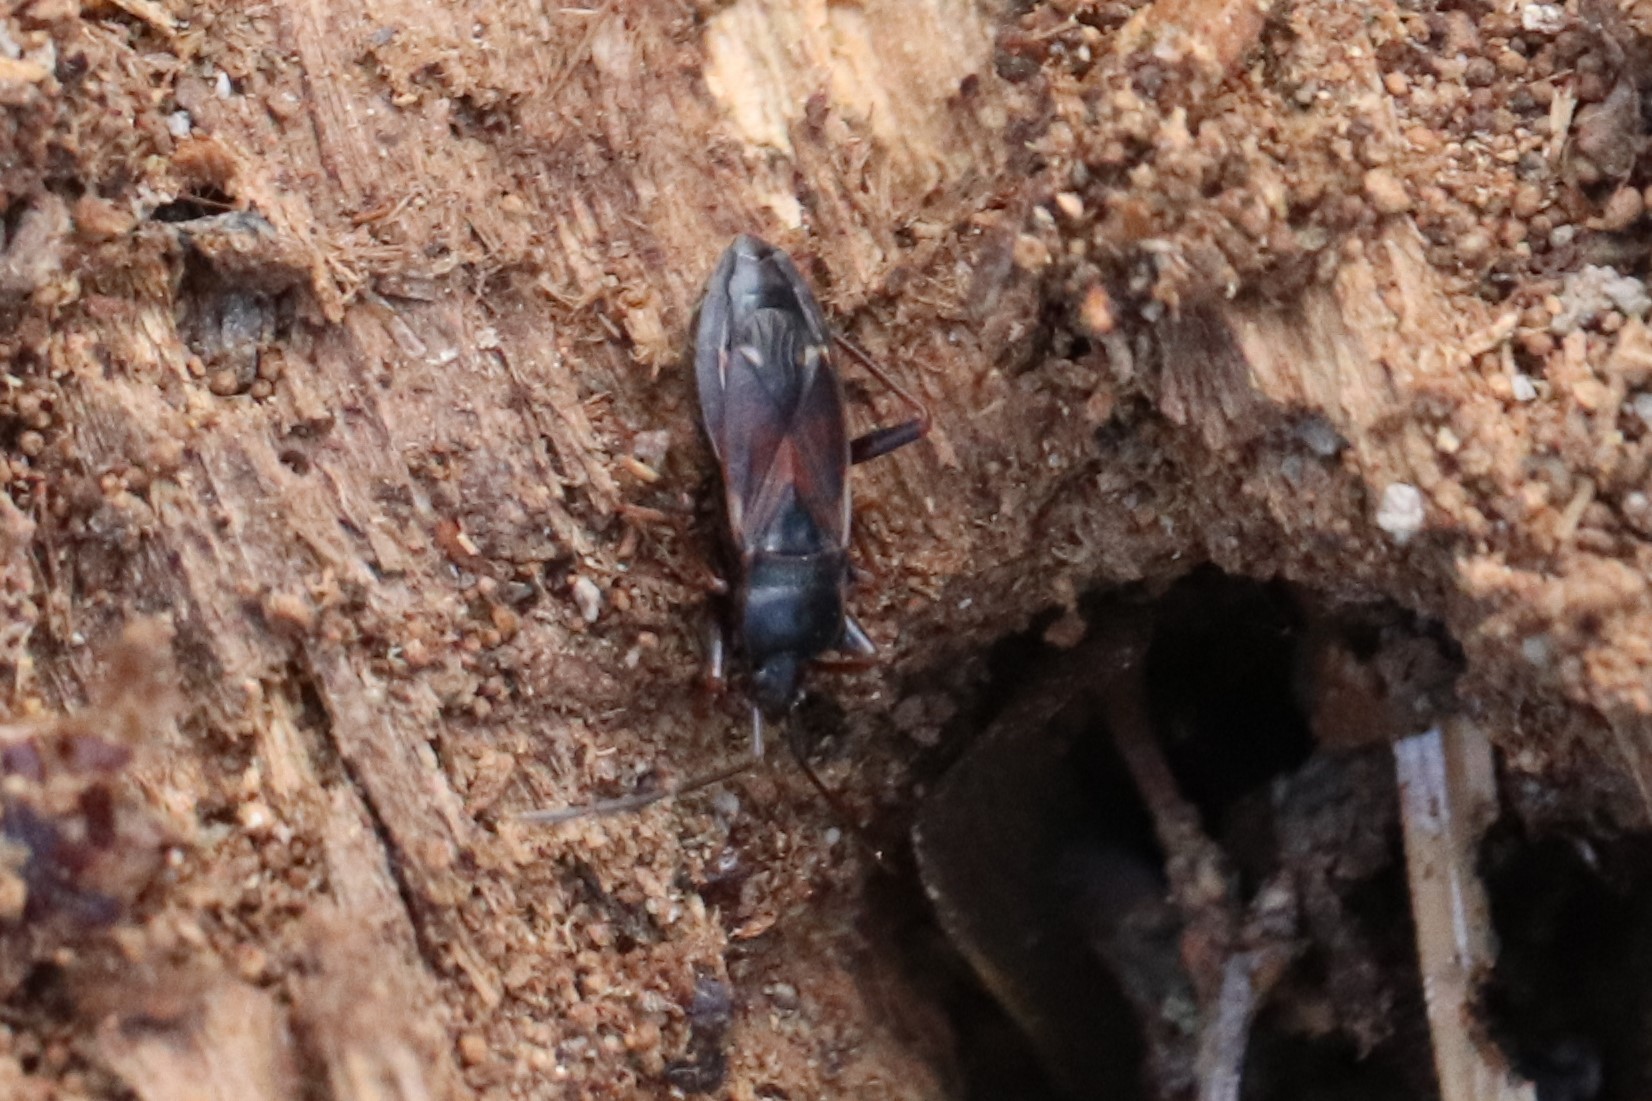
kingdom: Animalia
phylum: Arthropoda
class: Insecta
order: Hemiptera
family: Rhyparochromidae
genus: Eremocoris
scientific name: Eremocoris semicinctus
